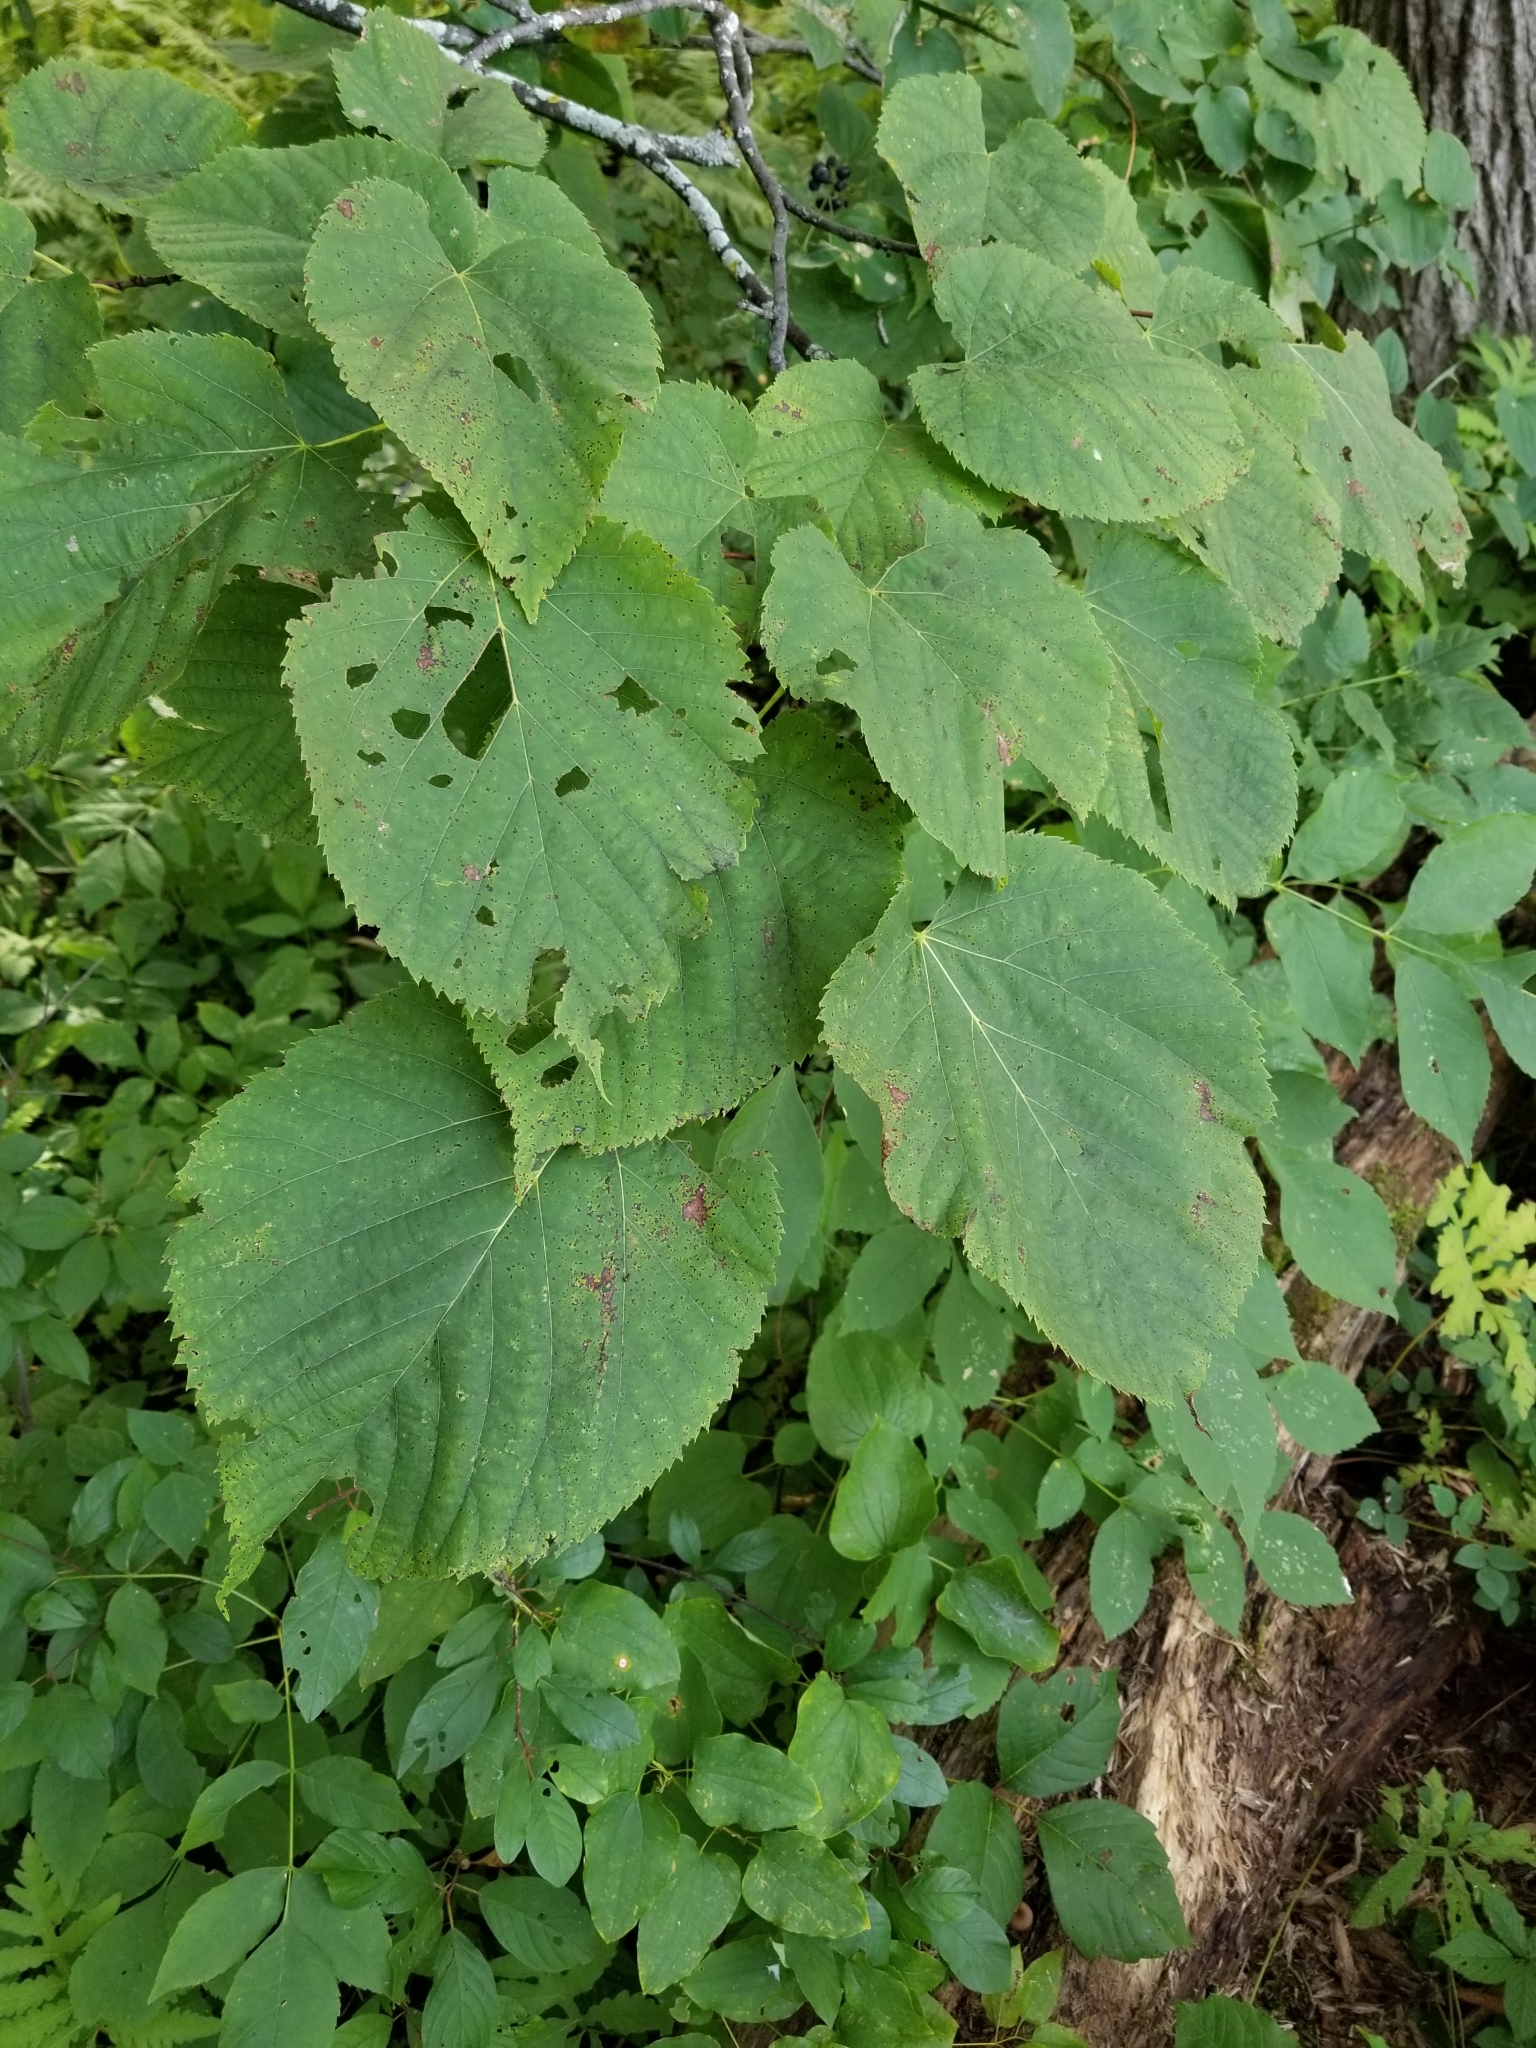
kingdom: Plantae
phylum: Tracheophyta
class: Magnoliopsida
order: Malvales
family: Malvaceae
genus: Tilia
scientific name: Tilia americana
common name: Basswood
